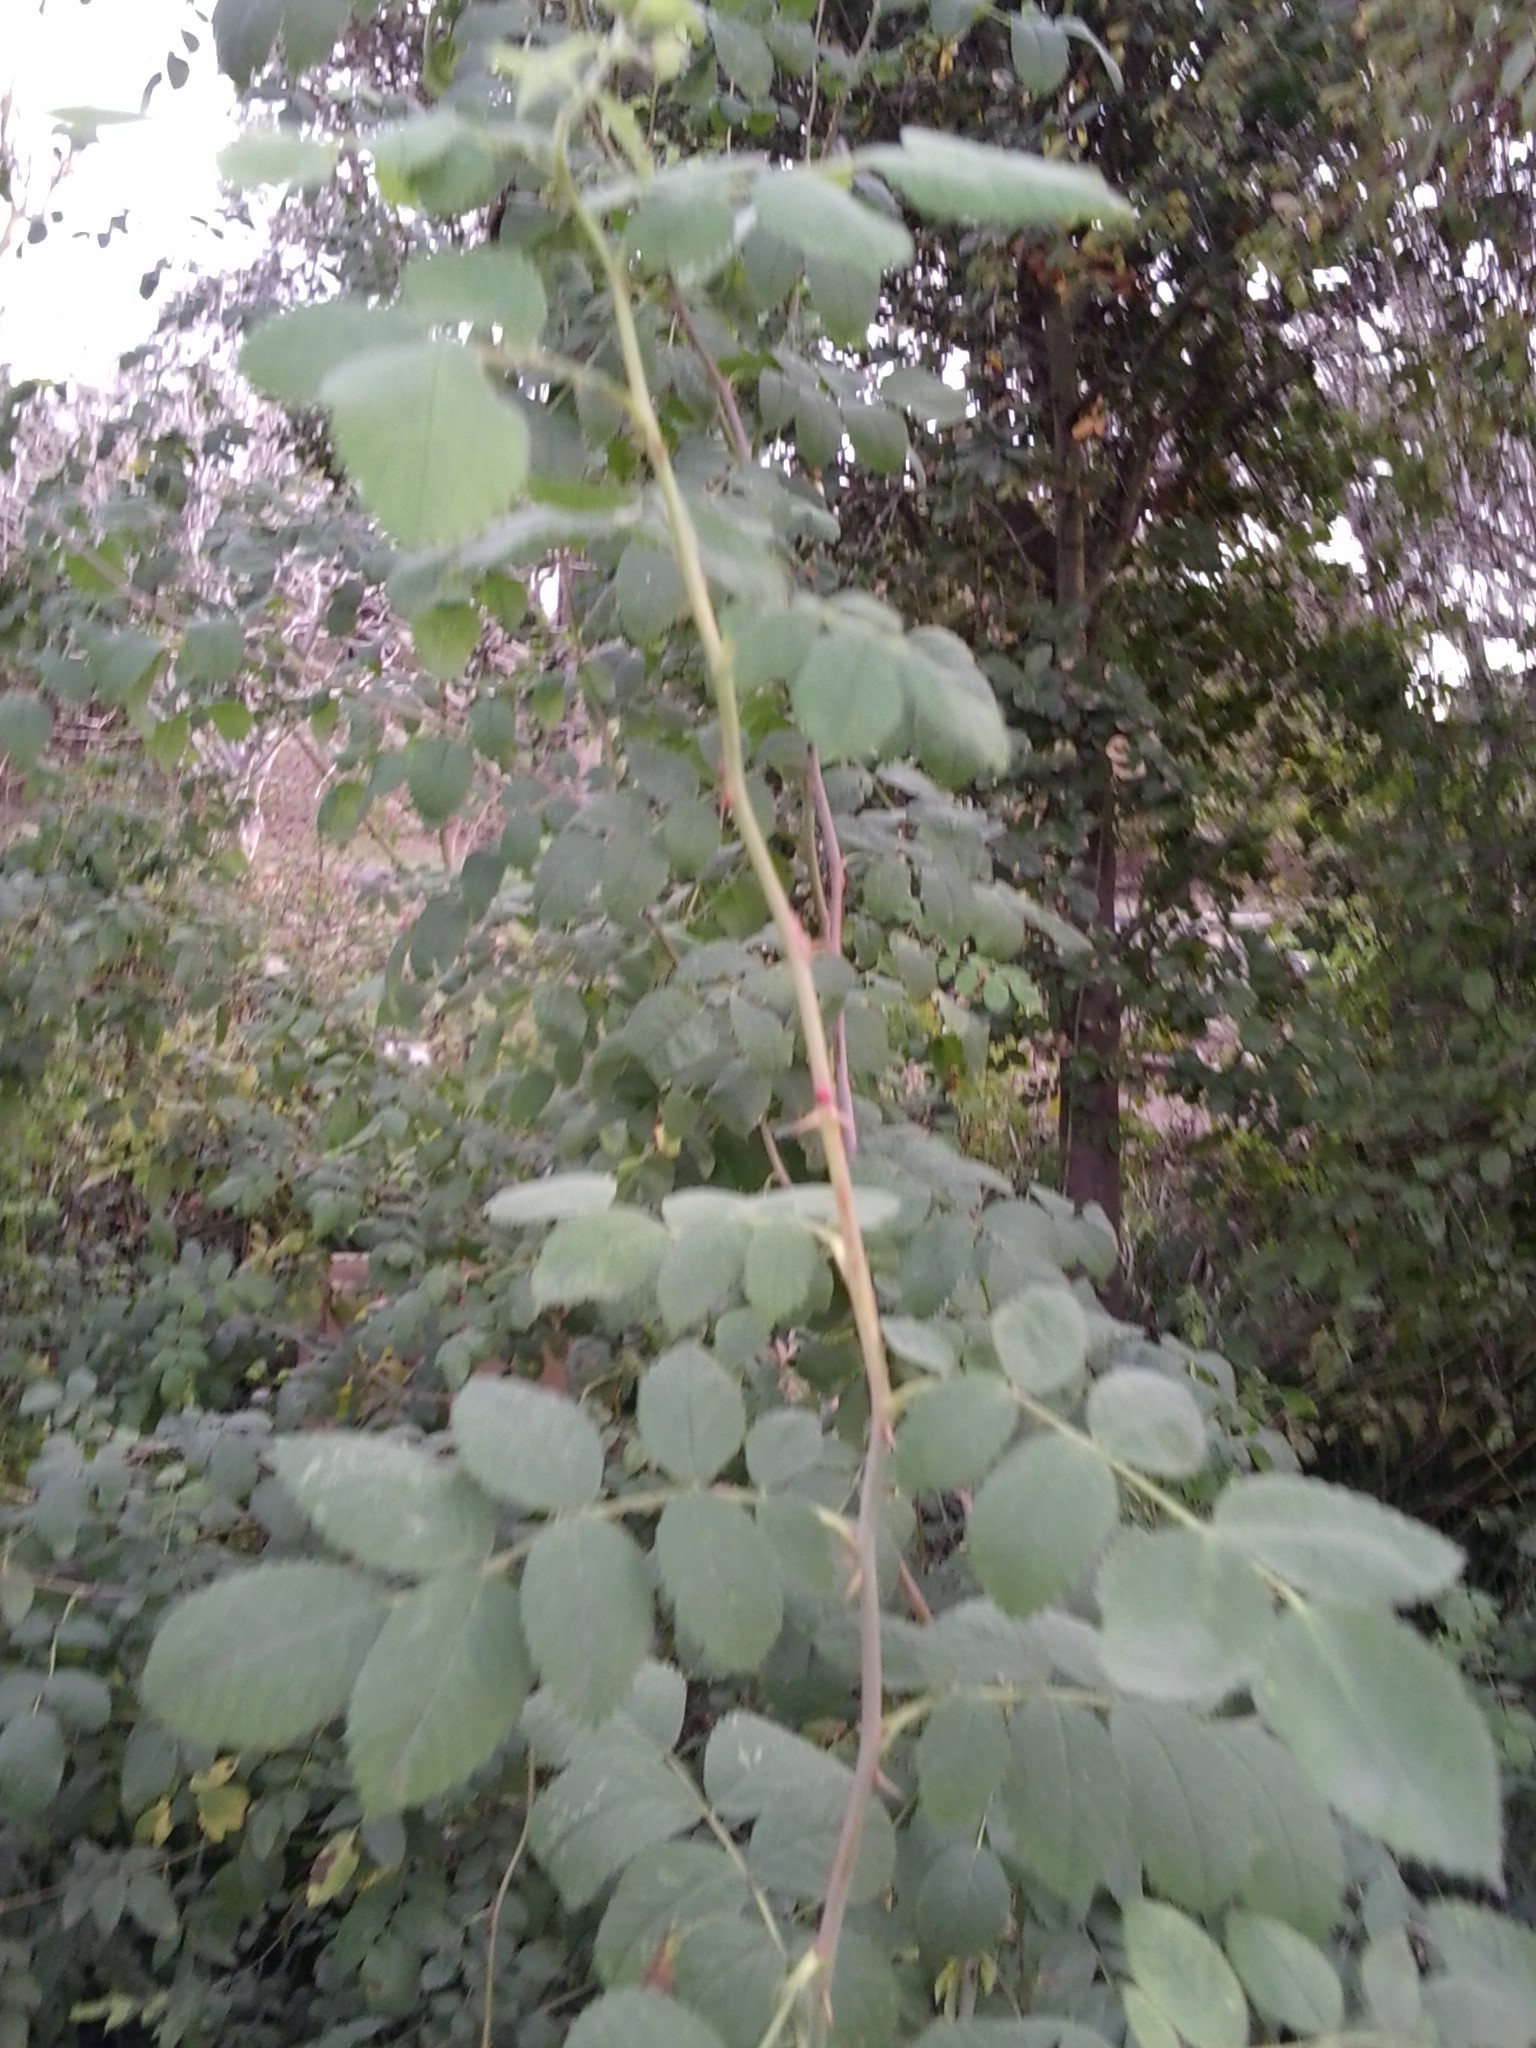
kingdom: Plantae
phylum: Tracheophyta
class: Magnoliopsida
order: Rosales
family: Rosaceae
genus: Rosa
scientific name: Rosa californica
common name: California rose
